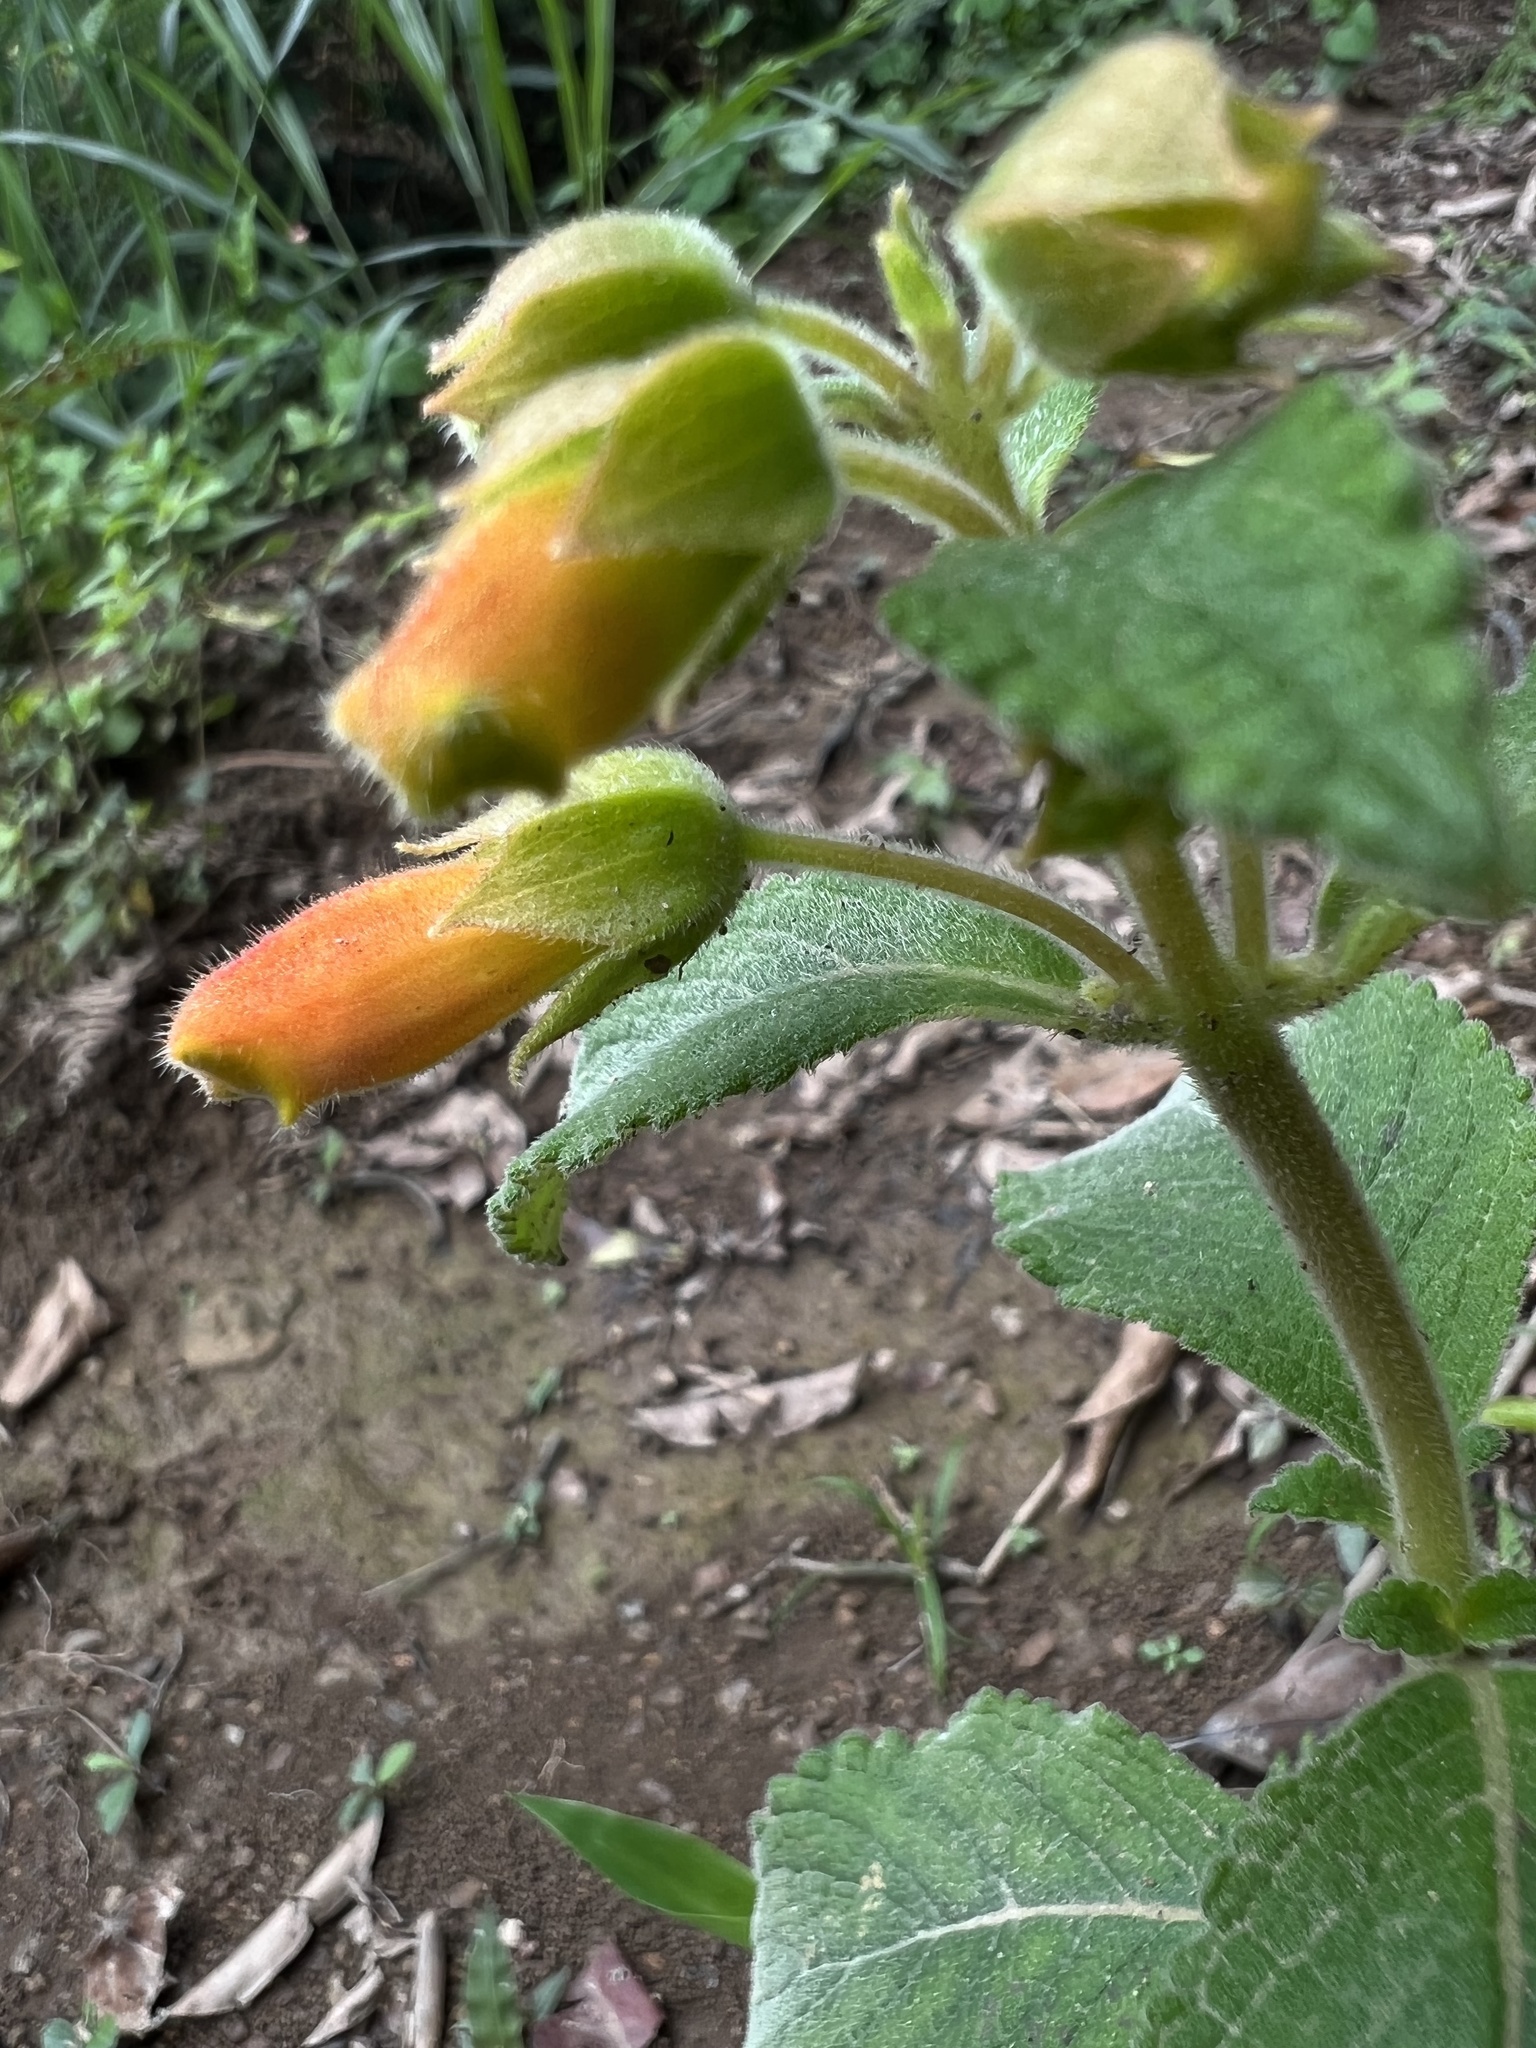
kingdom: Plantae
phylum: Tracheophyta
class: Magnoliopsida
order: Lamiales
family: Gesneriaceae
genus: Sinningia
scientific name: Sinningia incarnata
